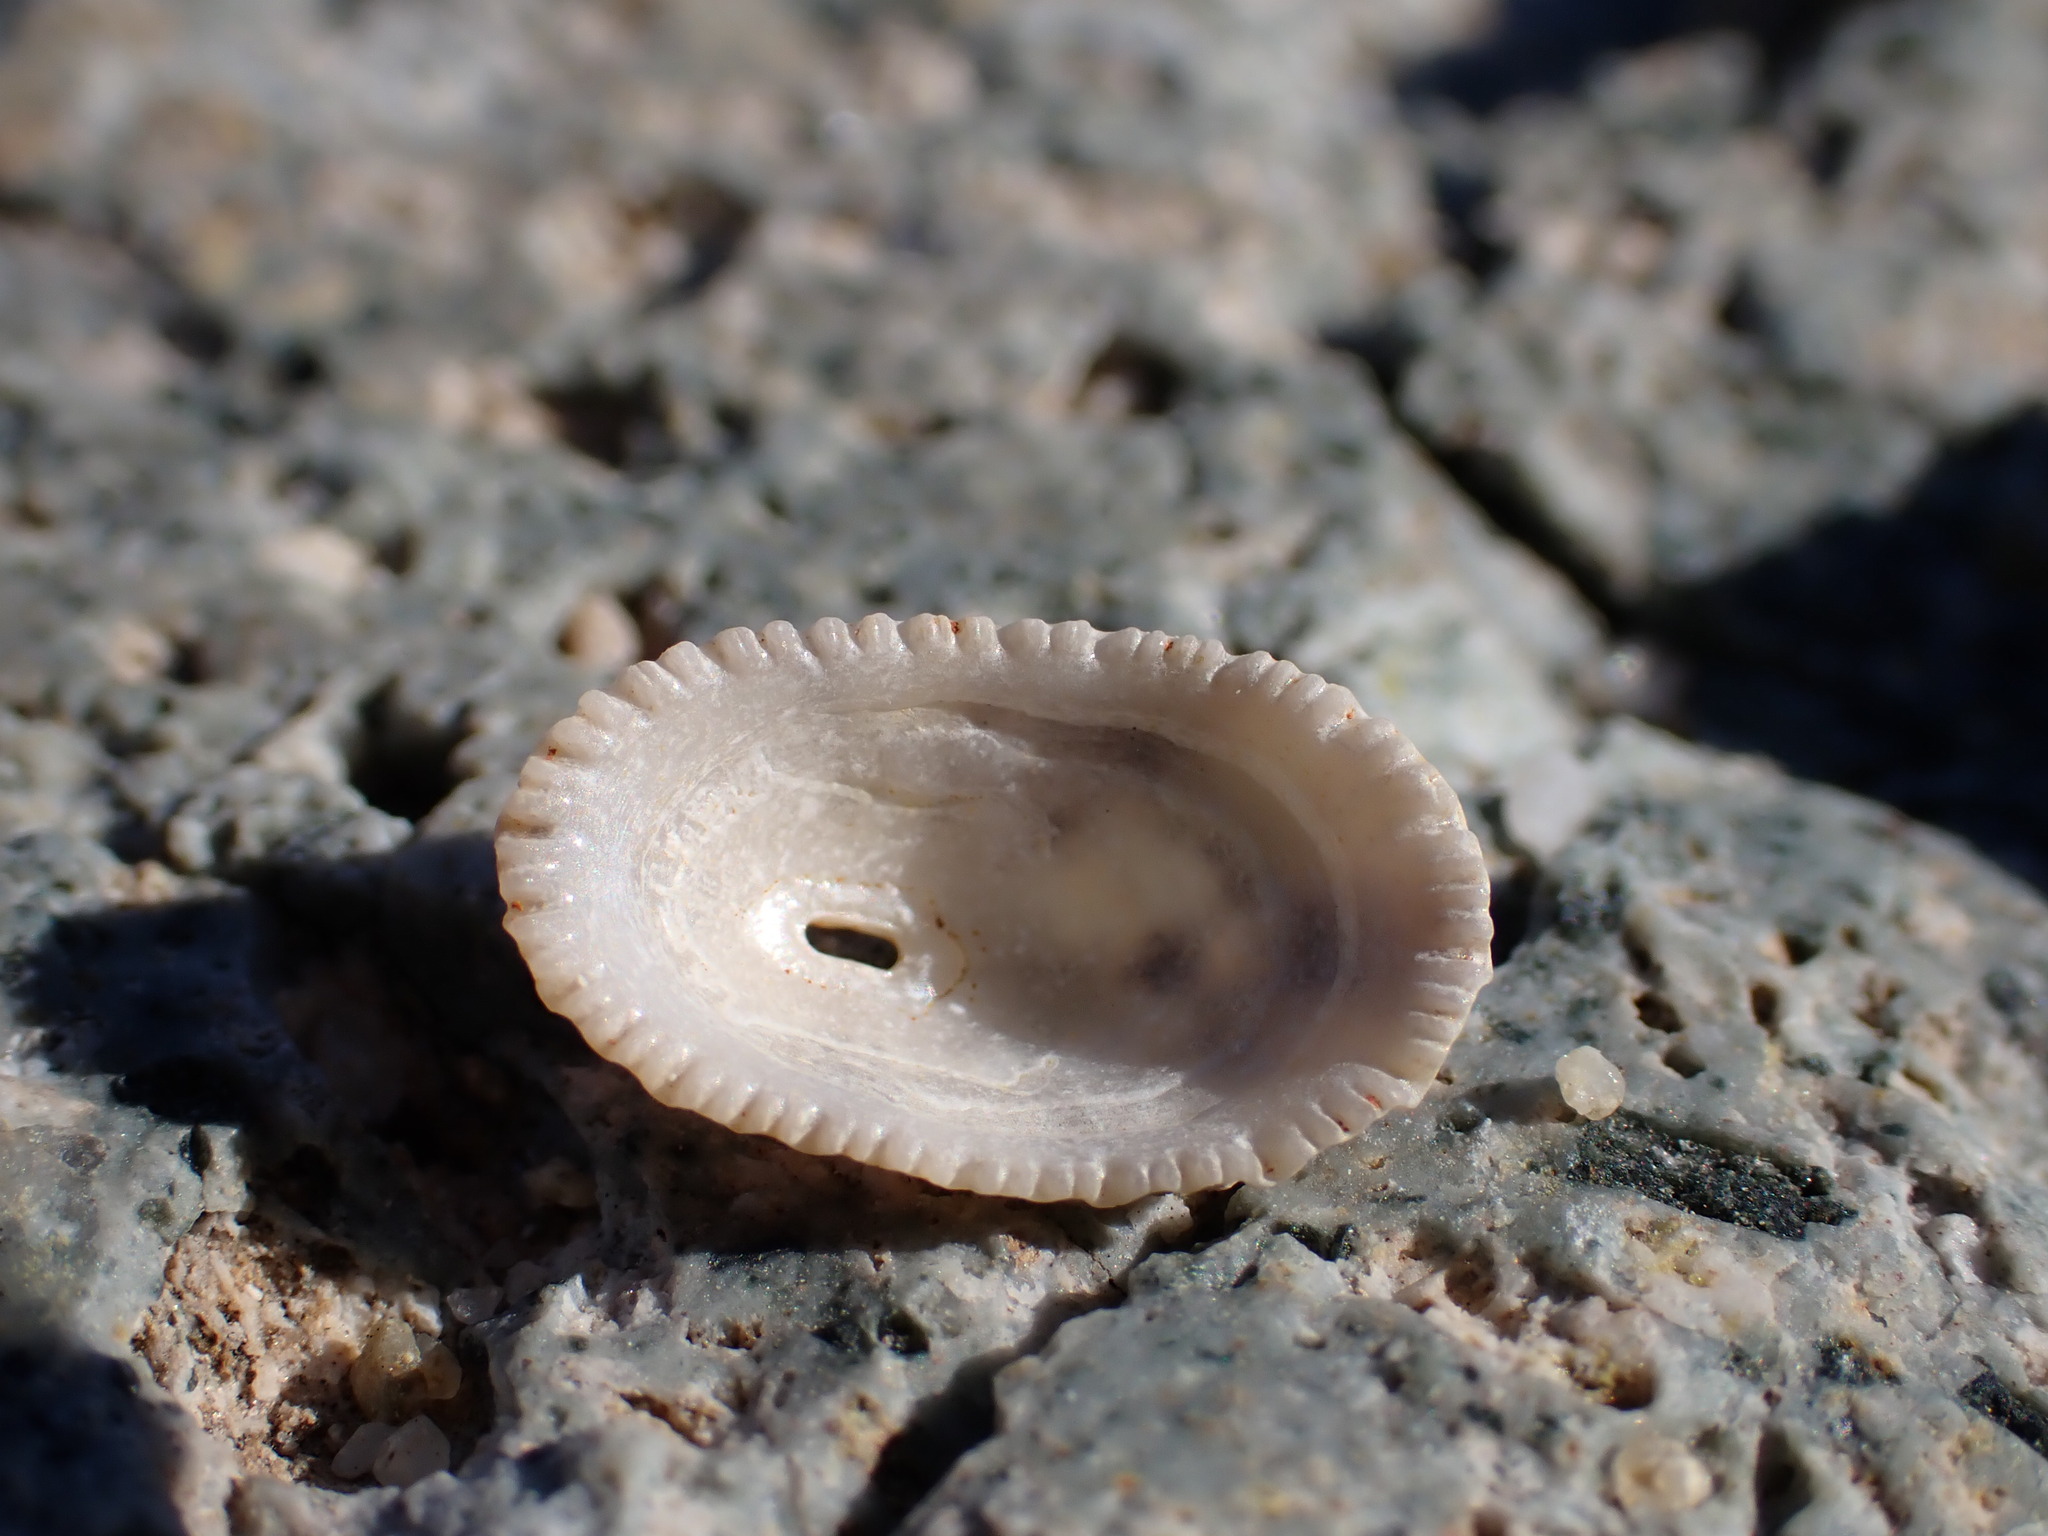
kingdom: Animalia
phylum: Mollusca
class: Gastropoda
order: Lepetellida
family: Fissurellidae
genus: Diodora
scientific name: Diodora graeca
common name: Common keyhole limpet
